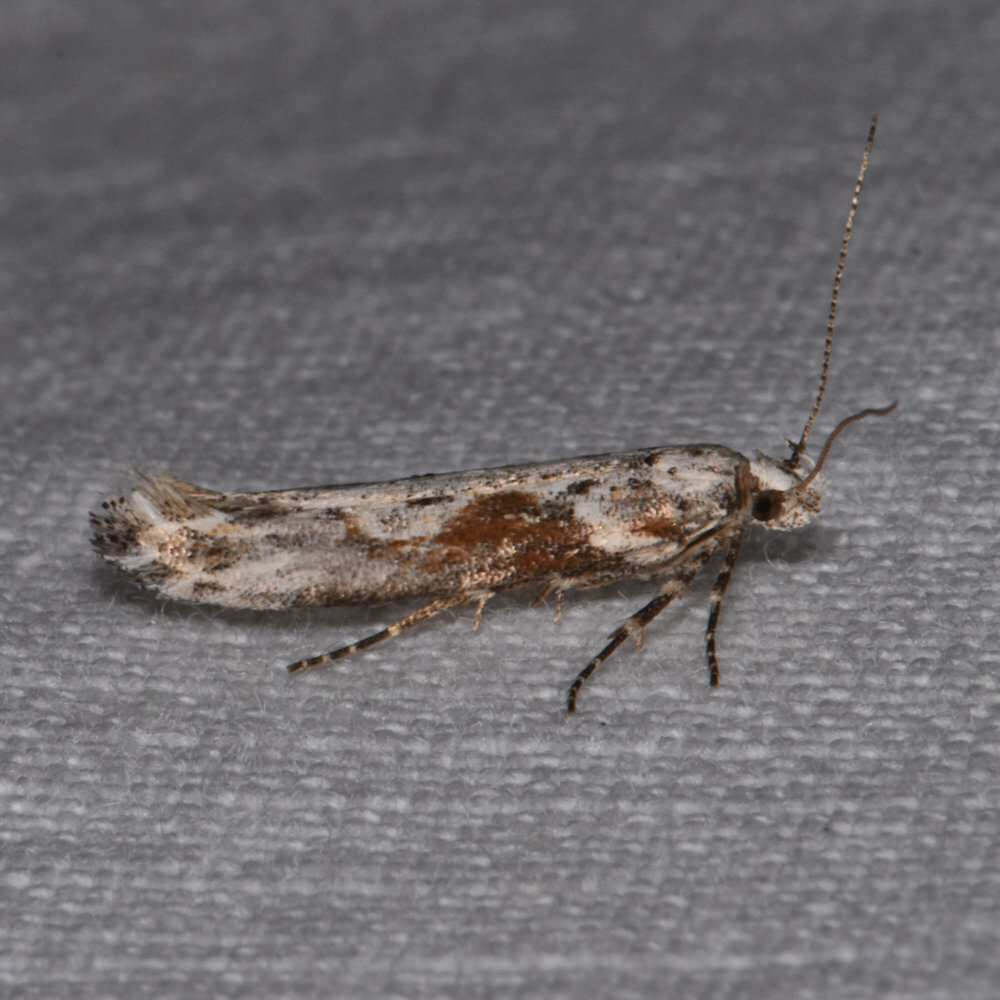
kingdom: Animalia
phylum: Arthropoda
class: Insecta
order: Lepidoptera
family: Gelechiidae
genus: Gnorimoschema
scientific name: Gnorimoschema gallaesolidaginis
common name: Goldenrod elliptical-gall moth
